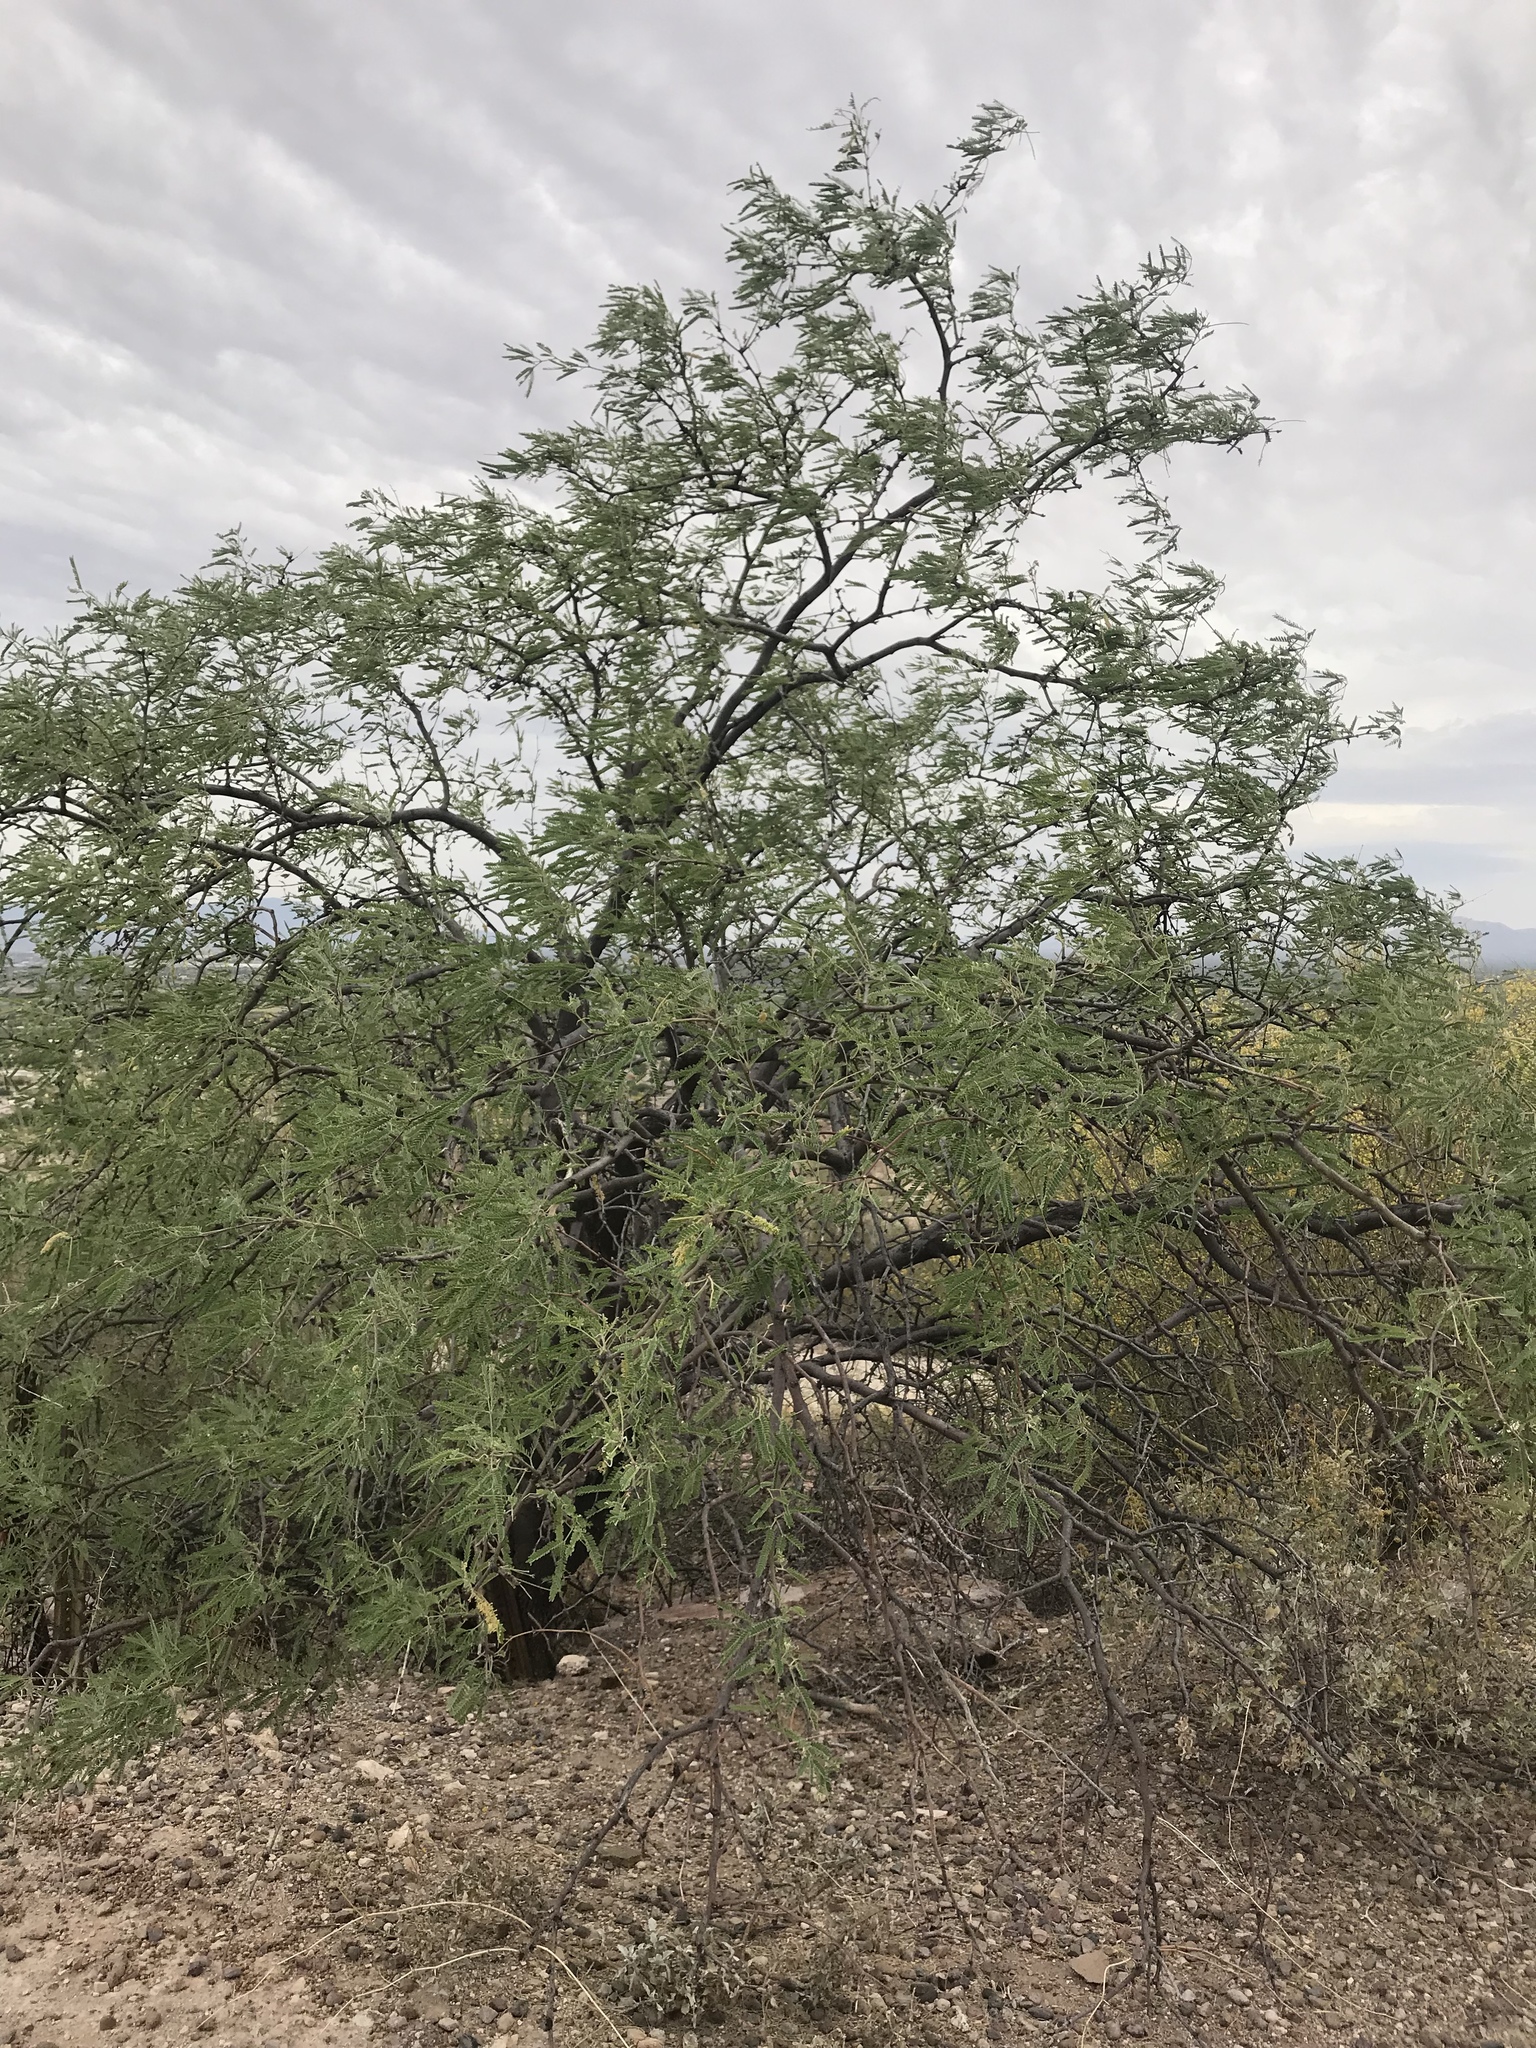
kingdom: Plantae
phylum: Tracheophyta
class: Magnoliopsida
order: Fabales
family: Fabaceae
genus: Prosopis
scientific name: Prosopis velutina
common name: Velvet mesquite
